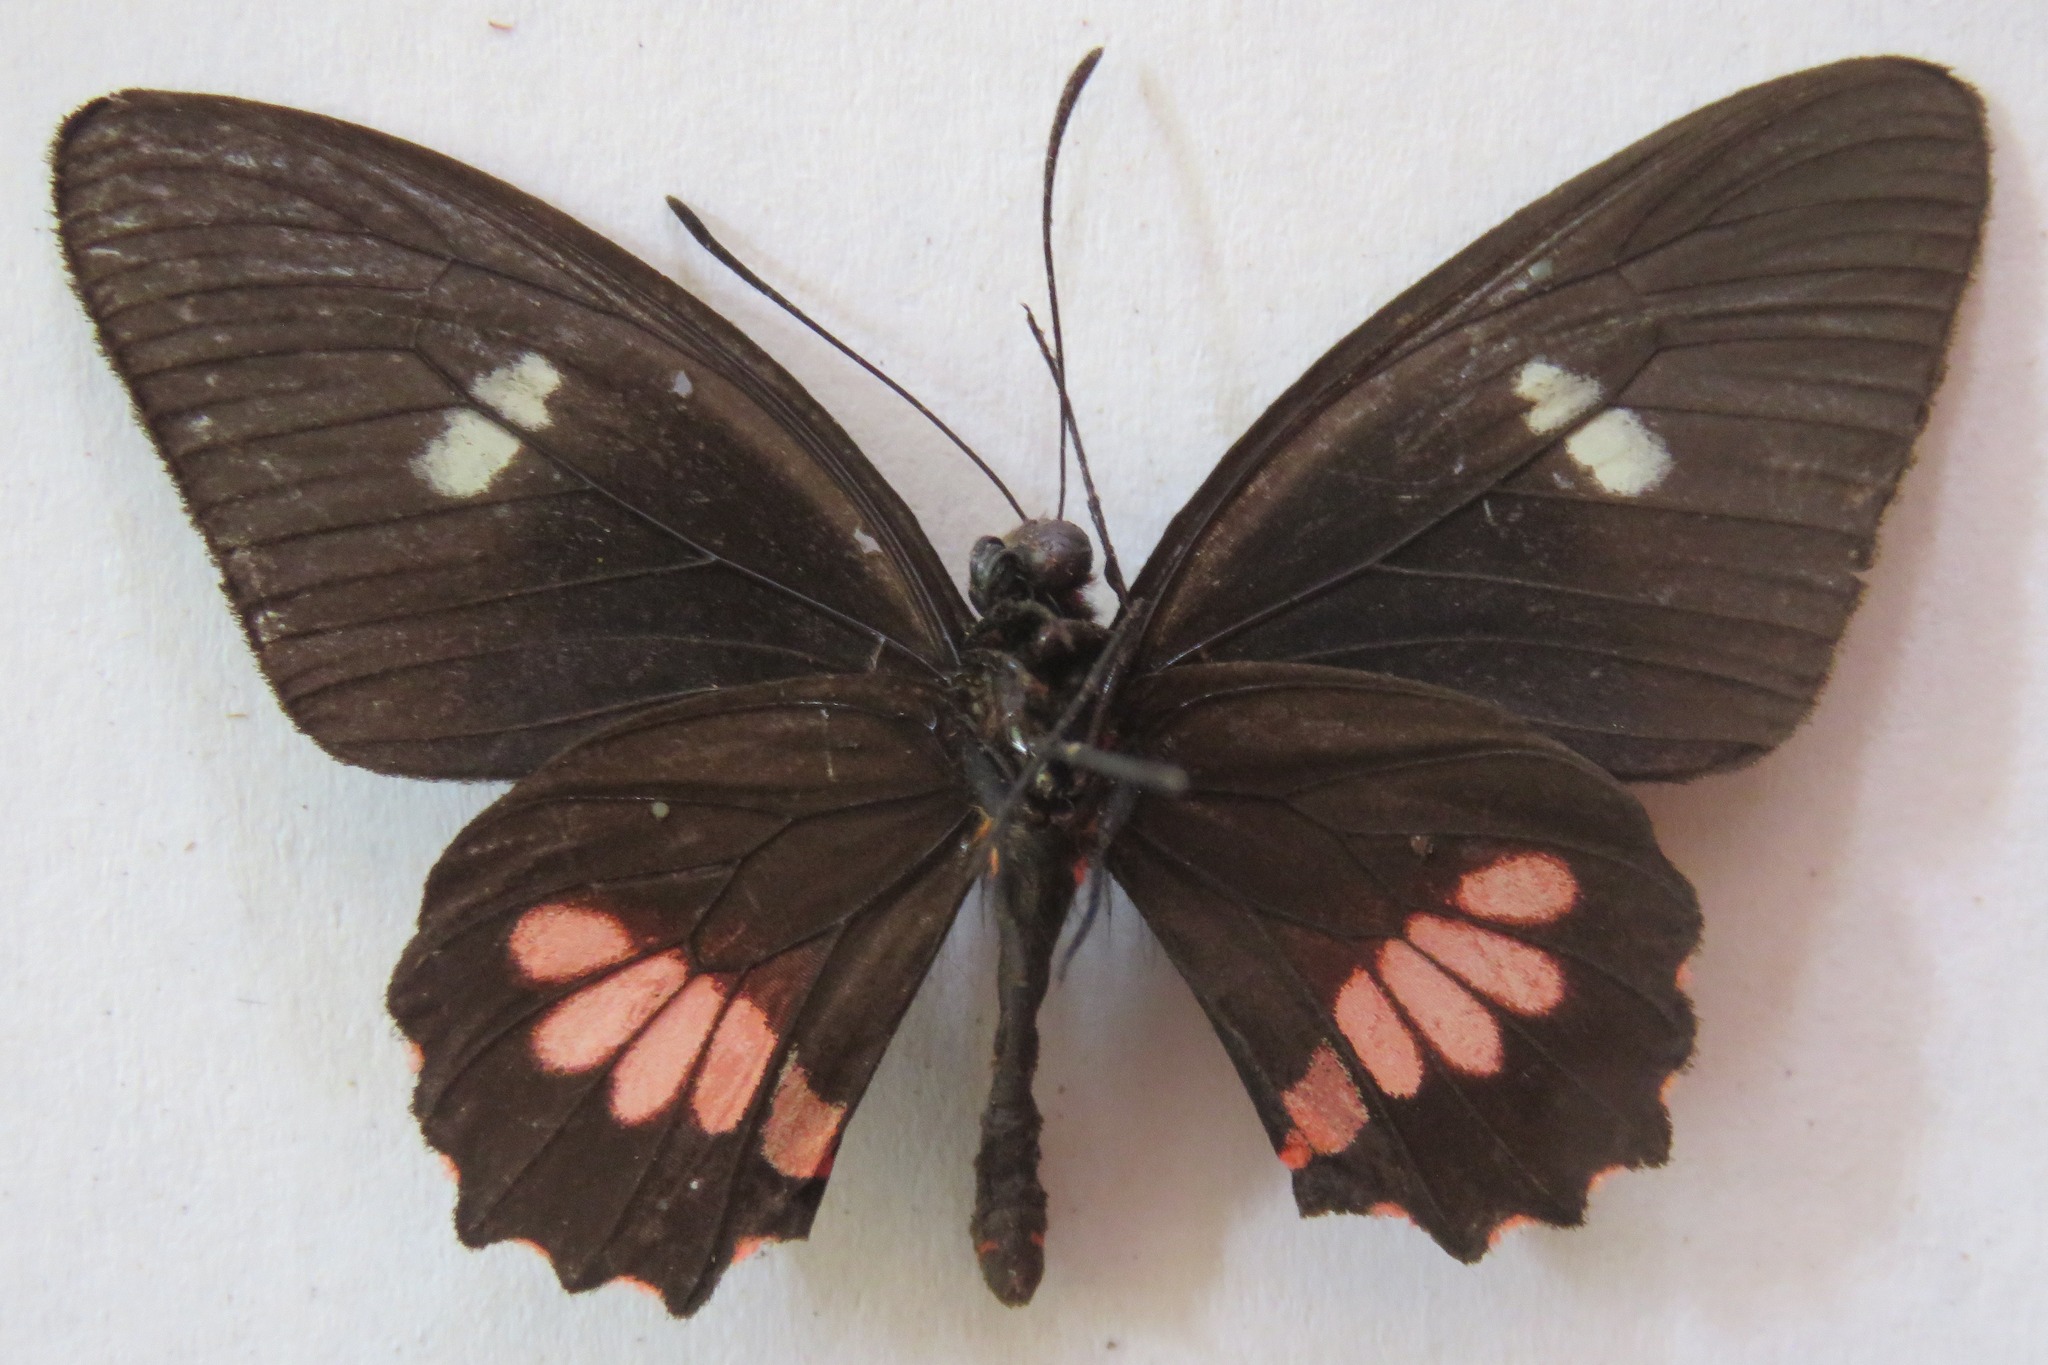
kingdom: Animalia
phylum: Arthropoda
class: Insecta
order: Lepidoptera
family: Papilionidae
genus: Parides
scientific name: Parides eurimedes
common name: True cattleheart
